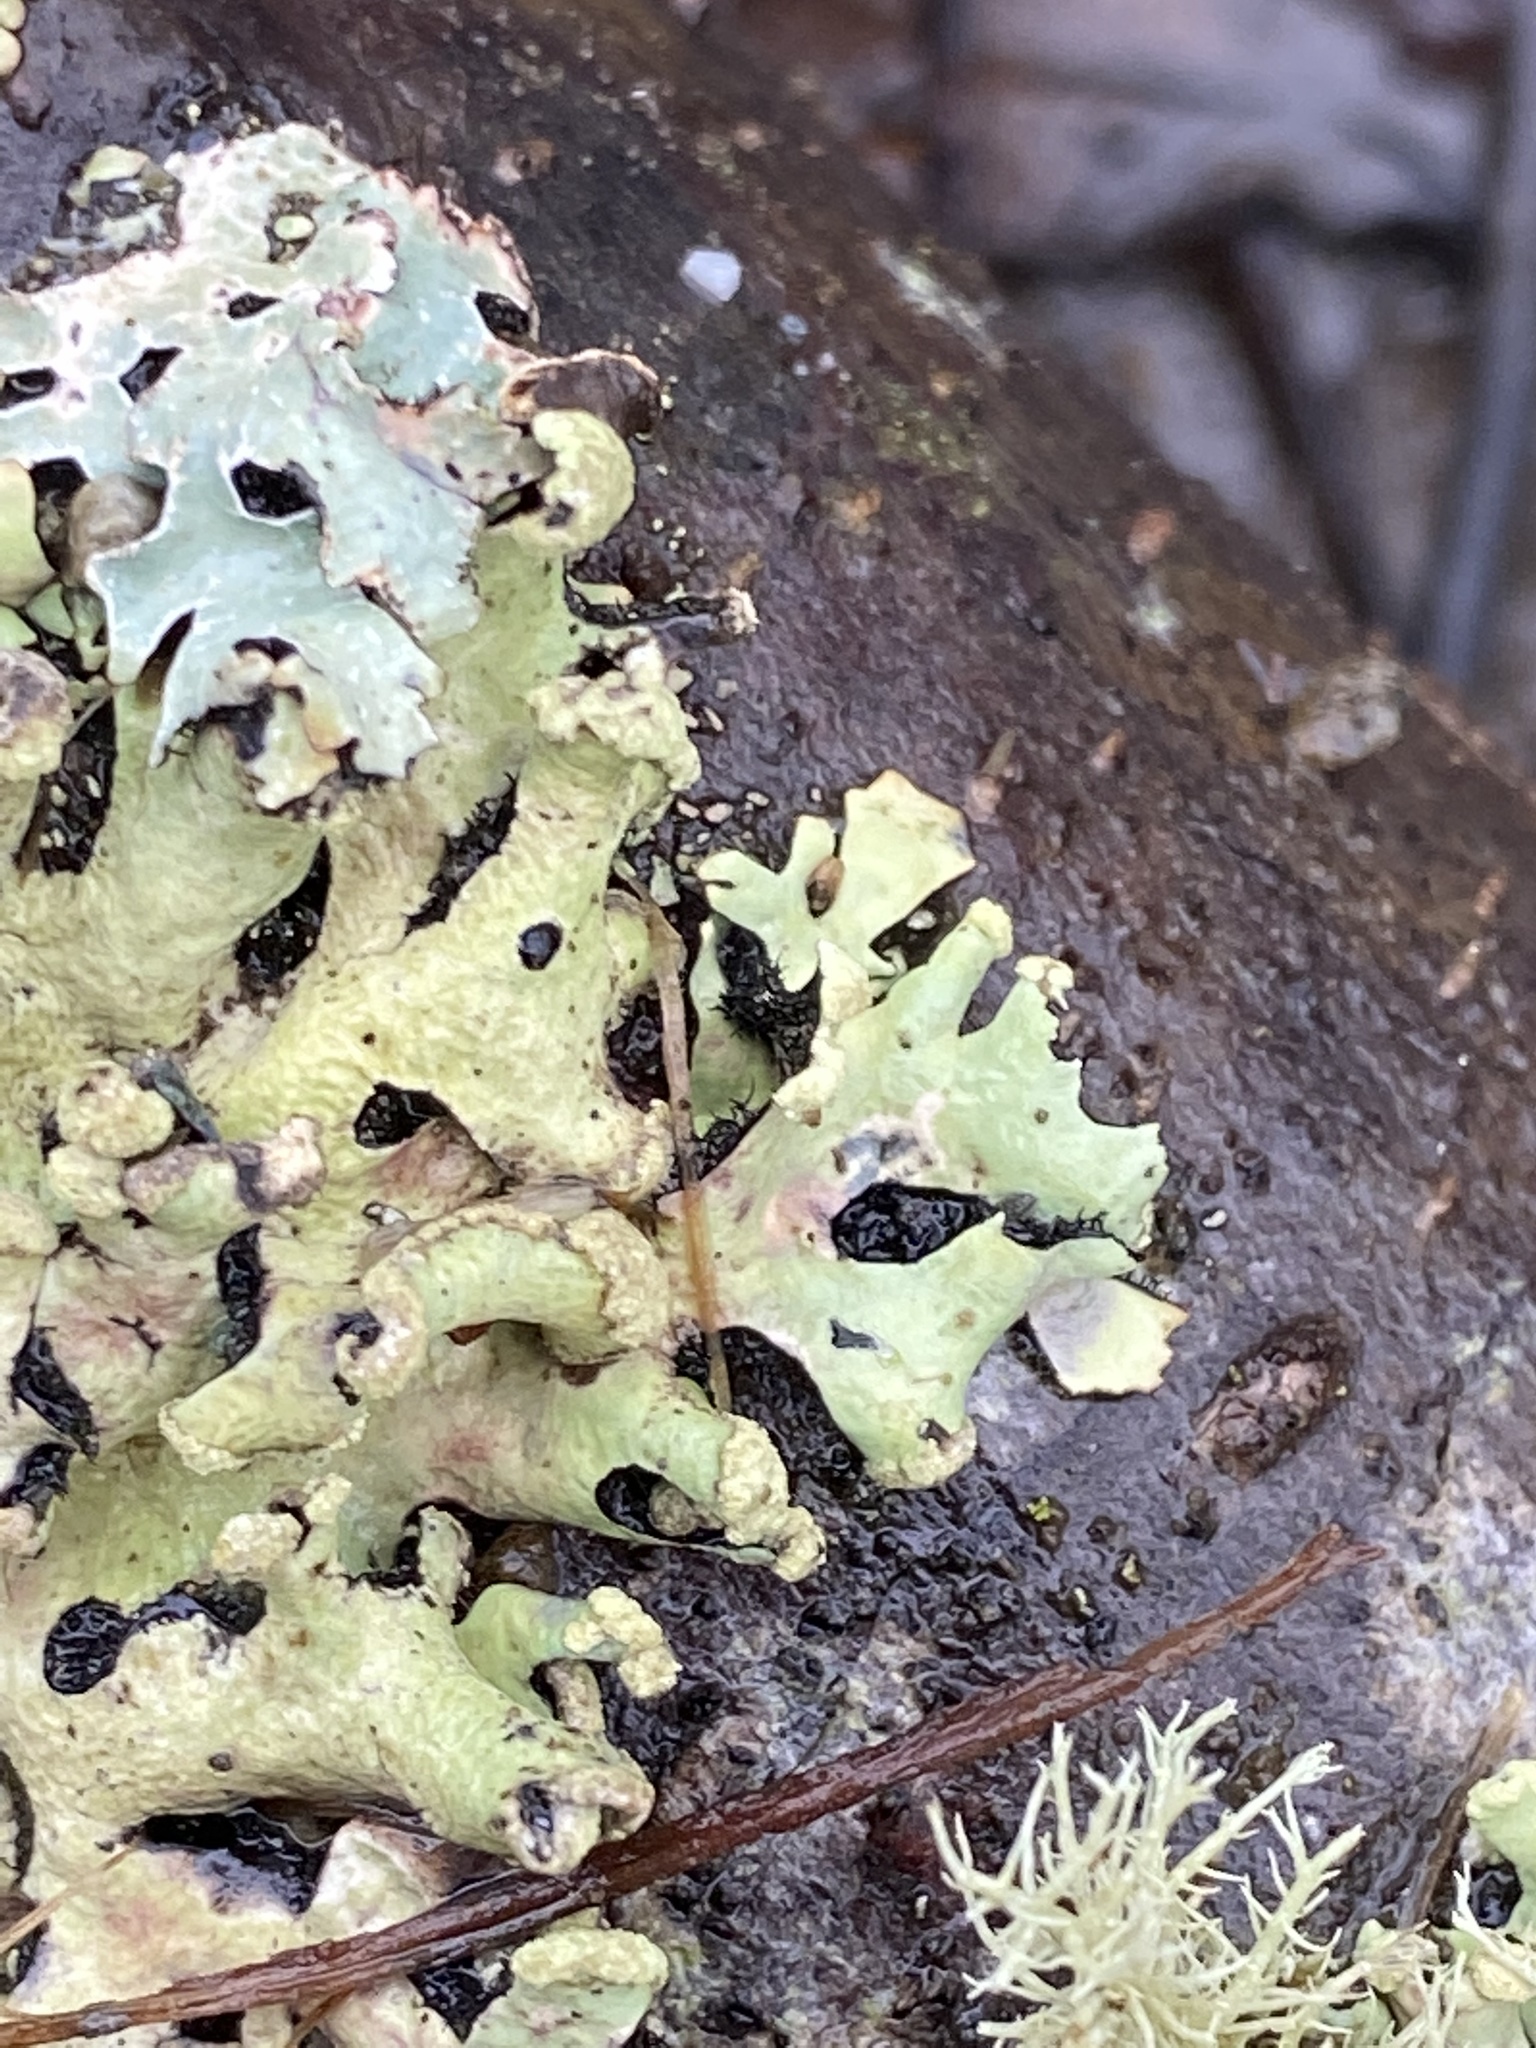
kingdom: Fungi
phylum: Ascomycota
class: Lecanoromycetes
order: Lecanorales
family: Parmeliaceae
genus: Hypotrachyna
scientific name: Hypotrachyna sinuosa
